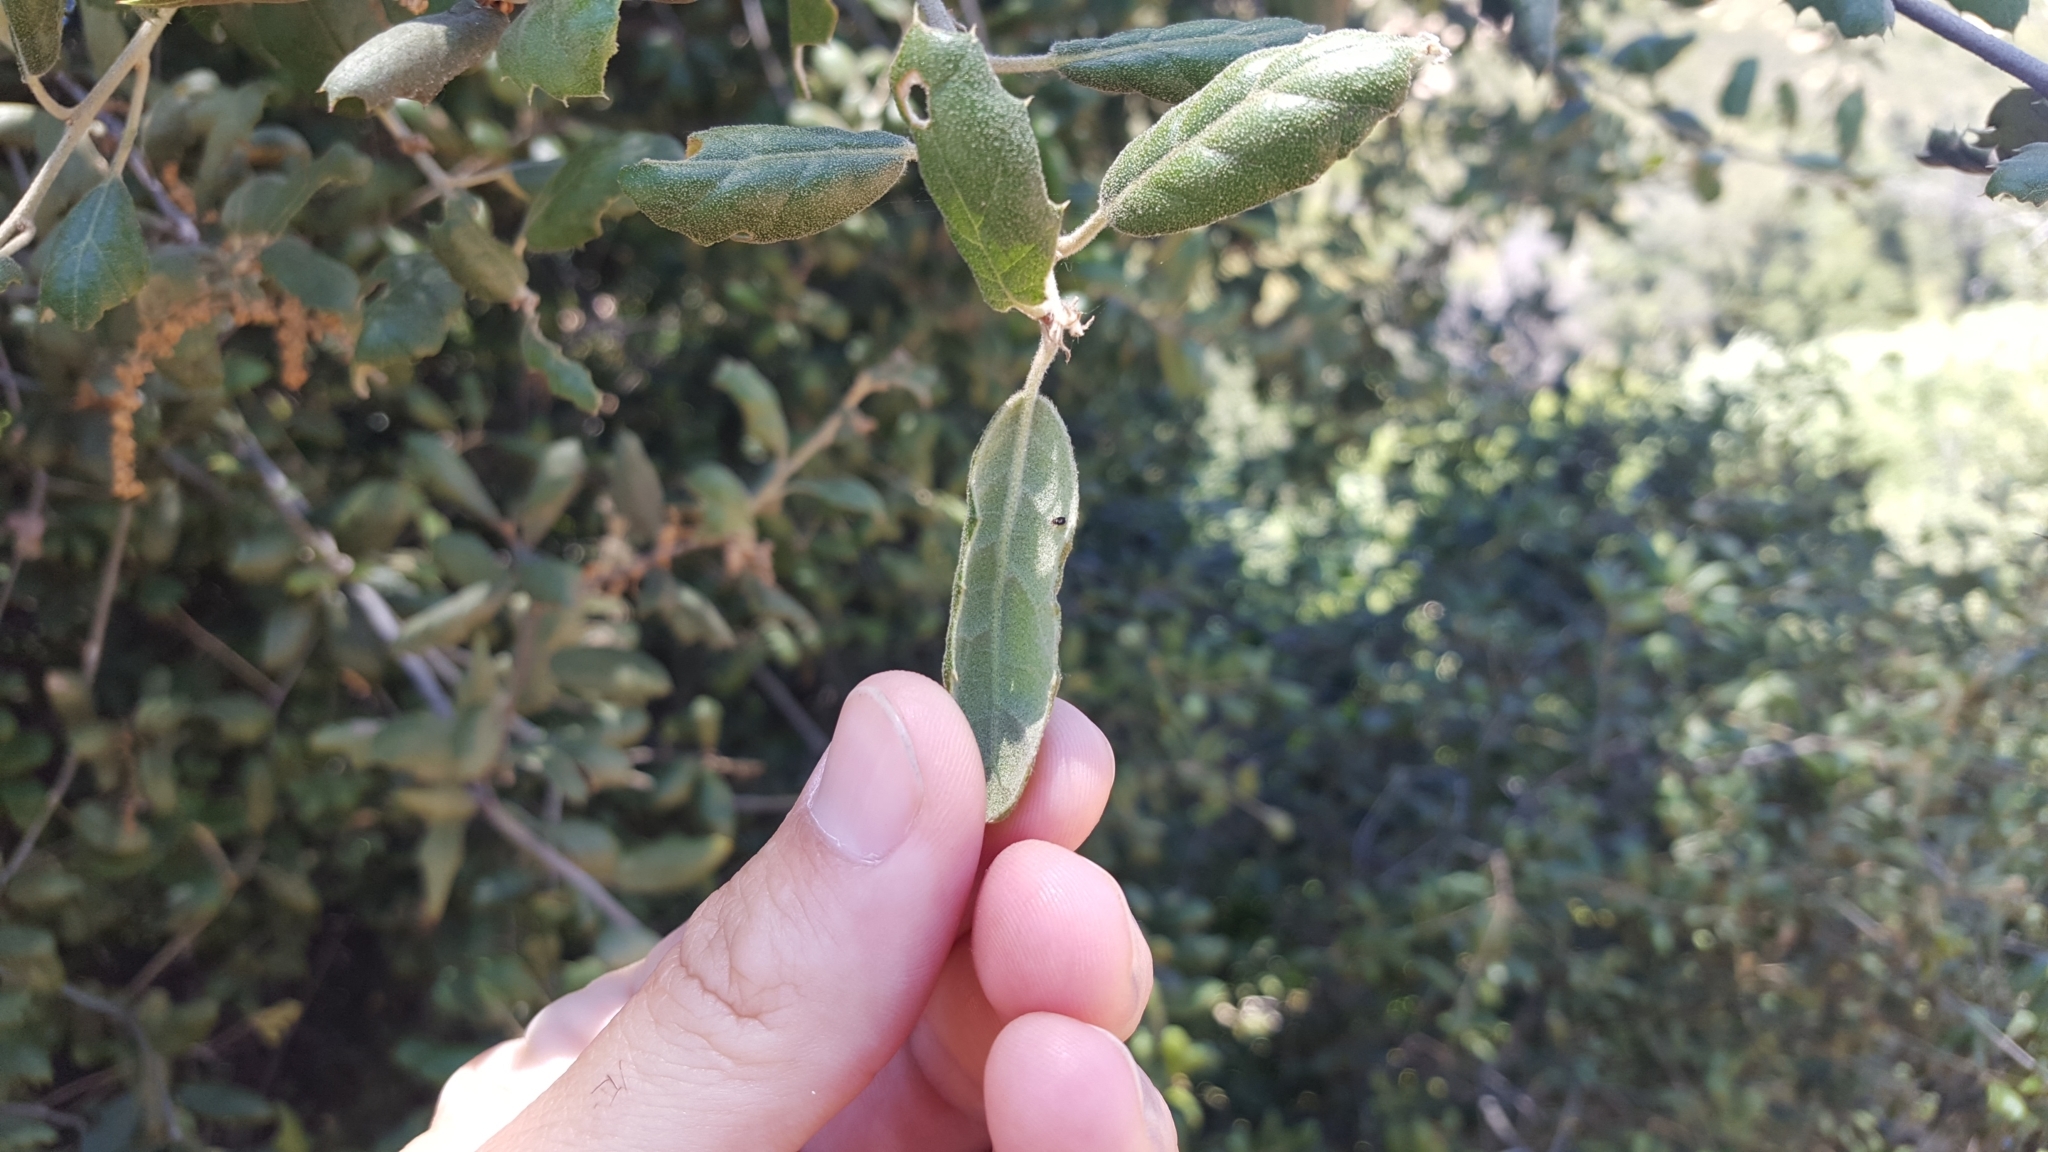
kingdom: Plantae
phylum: Tracheophyta
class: Magnoliopsida
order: Fagales
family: Fagaceae
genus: Quercus
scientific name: Quercus agrifolia
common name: California live oak
